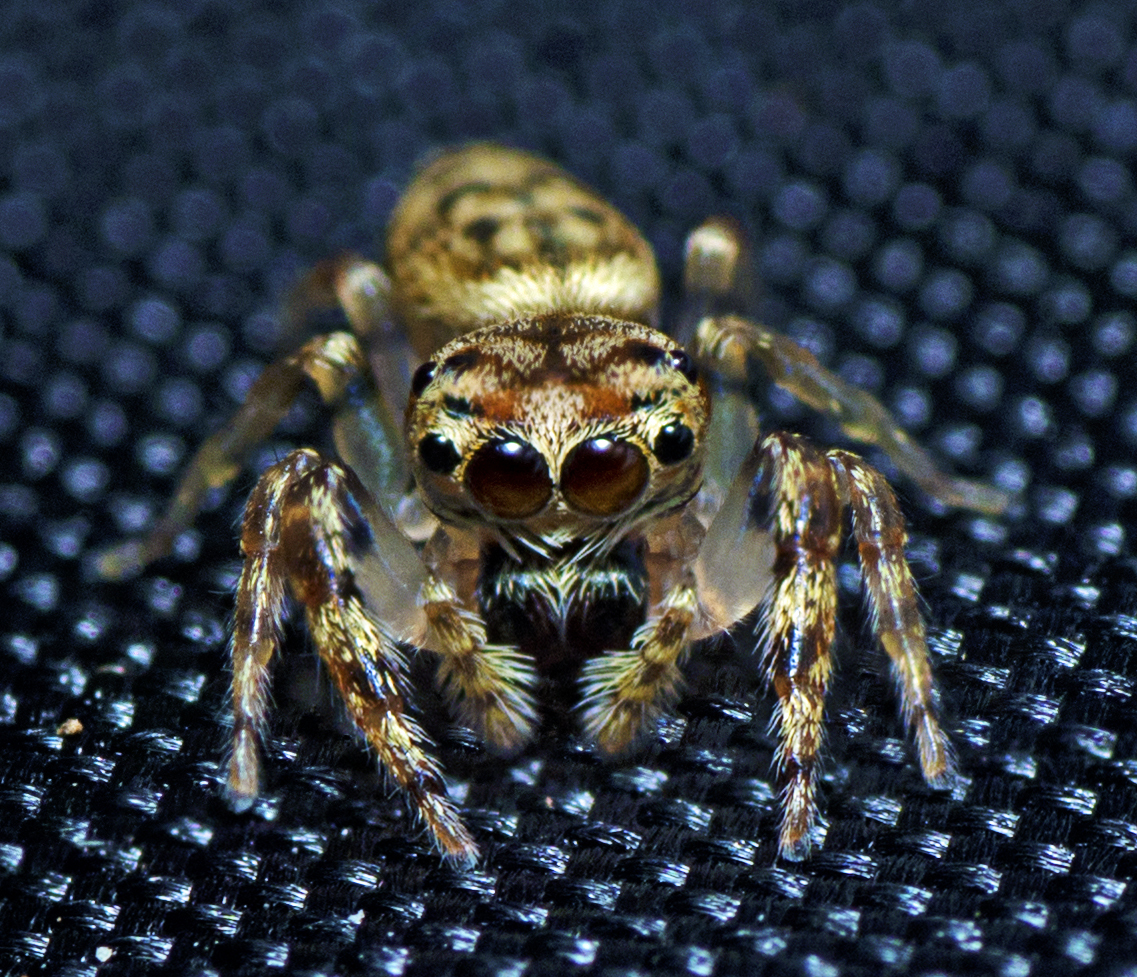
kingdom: Animalia
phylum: Arthropoda
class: Arachnida
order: Araneae
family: Salticidae
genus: Opisthoncus
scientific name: Opisthoncus barbipalpis
